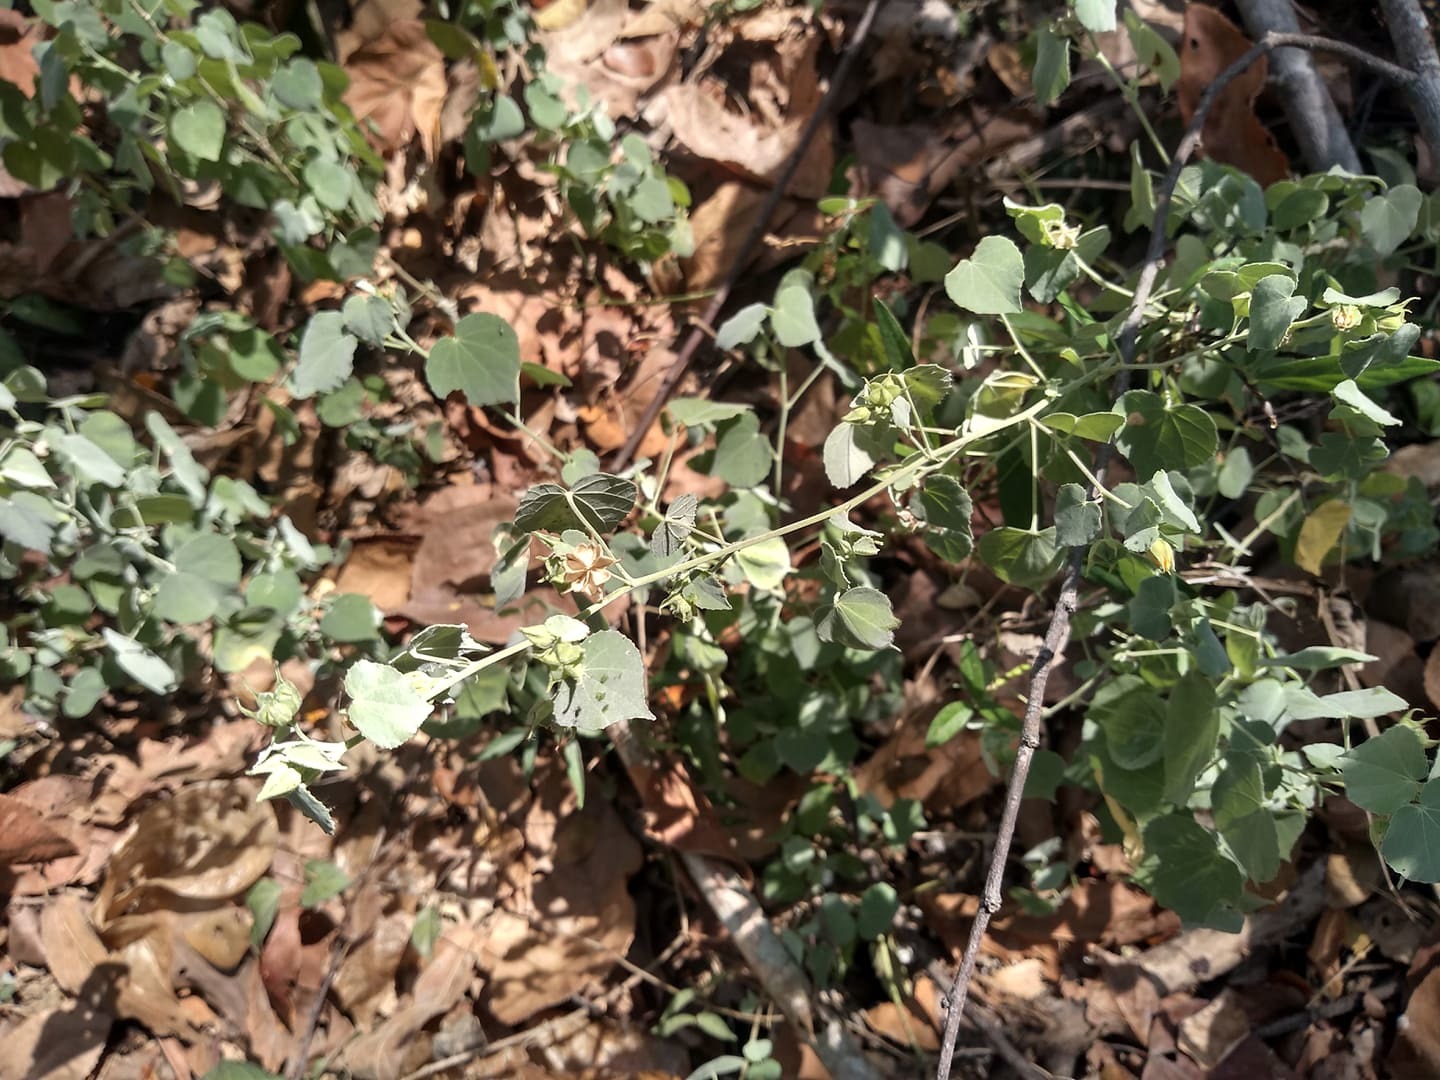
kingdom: Plantae
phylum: Tracheophyta
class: Magnoliopsida
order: Malvales
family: Malvaceae
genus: Abutilon
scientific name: Abutilon viscosum
